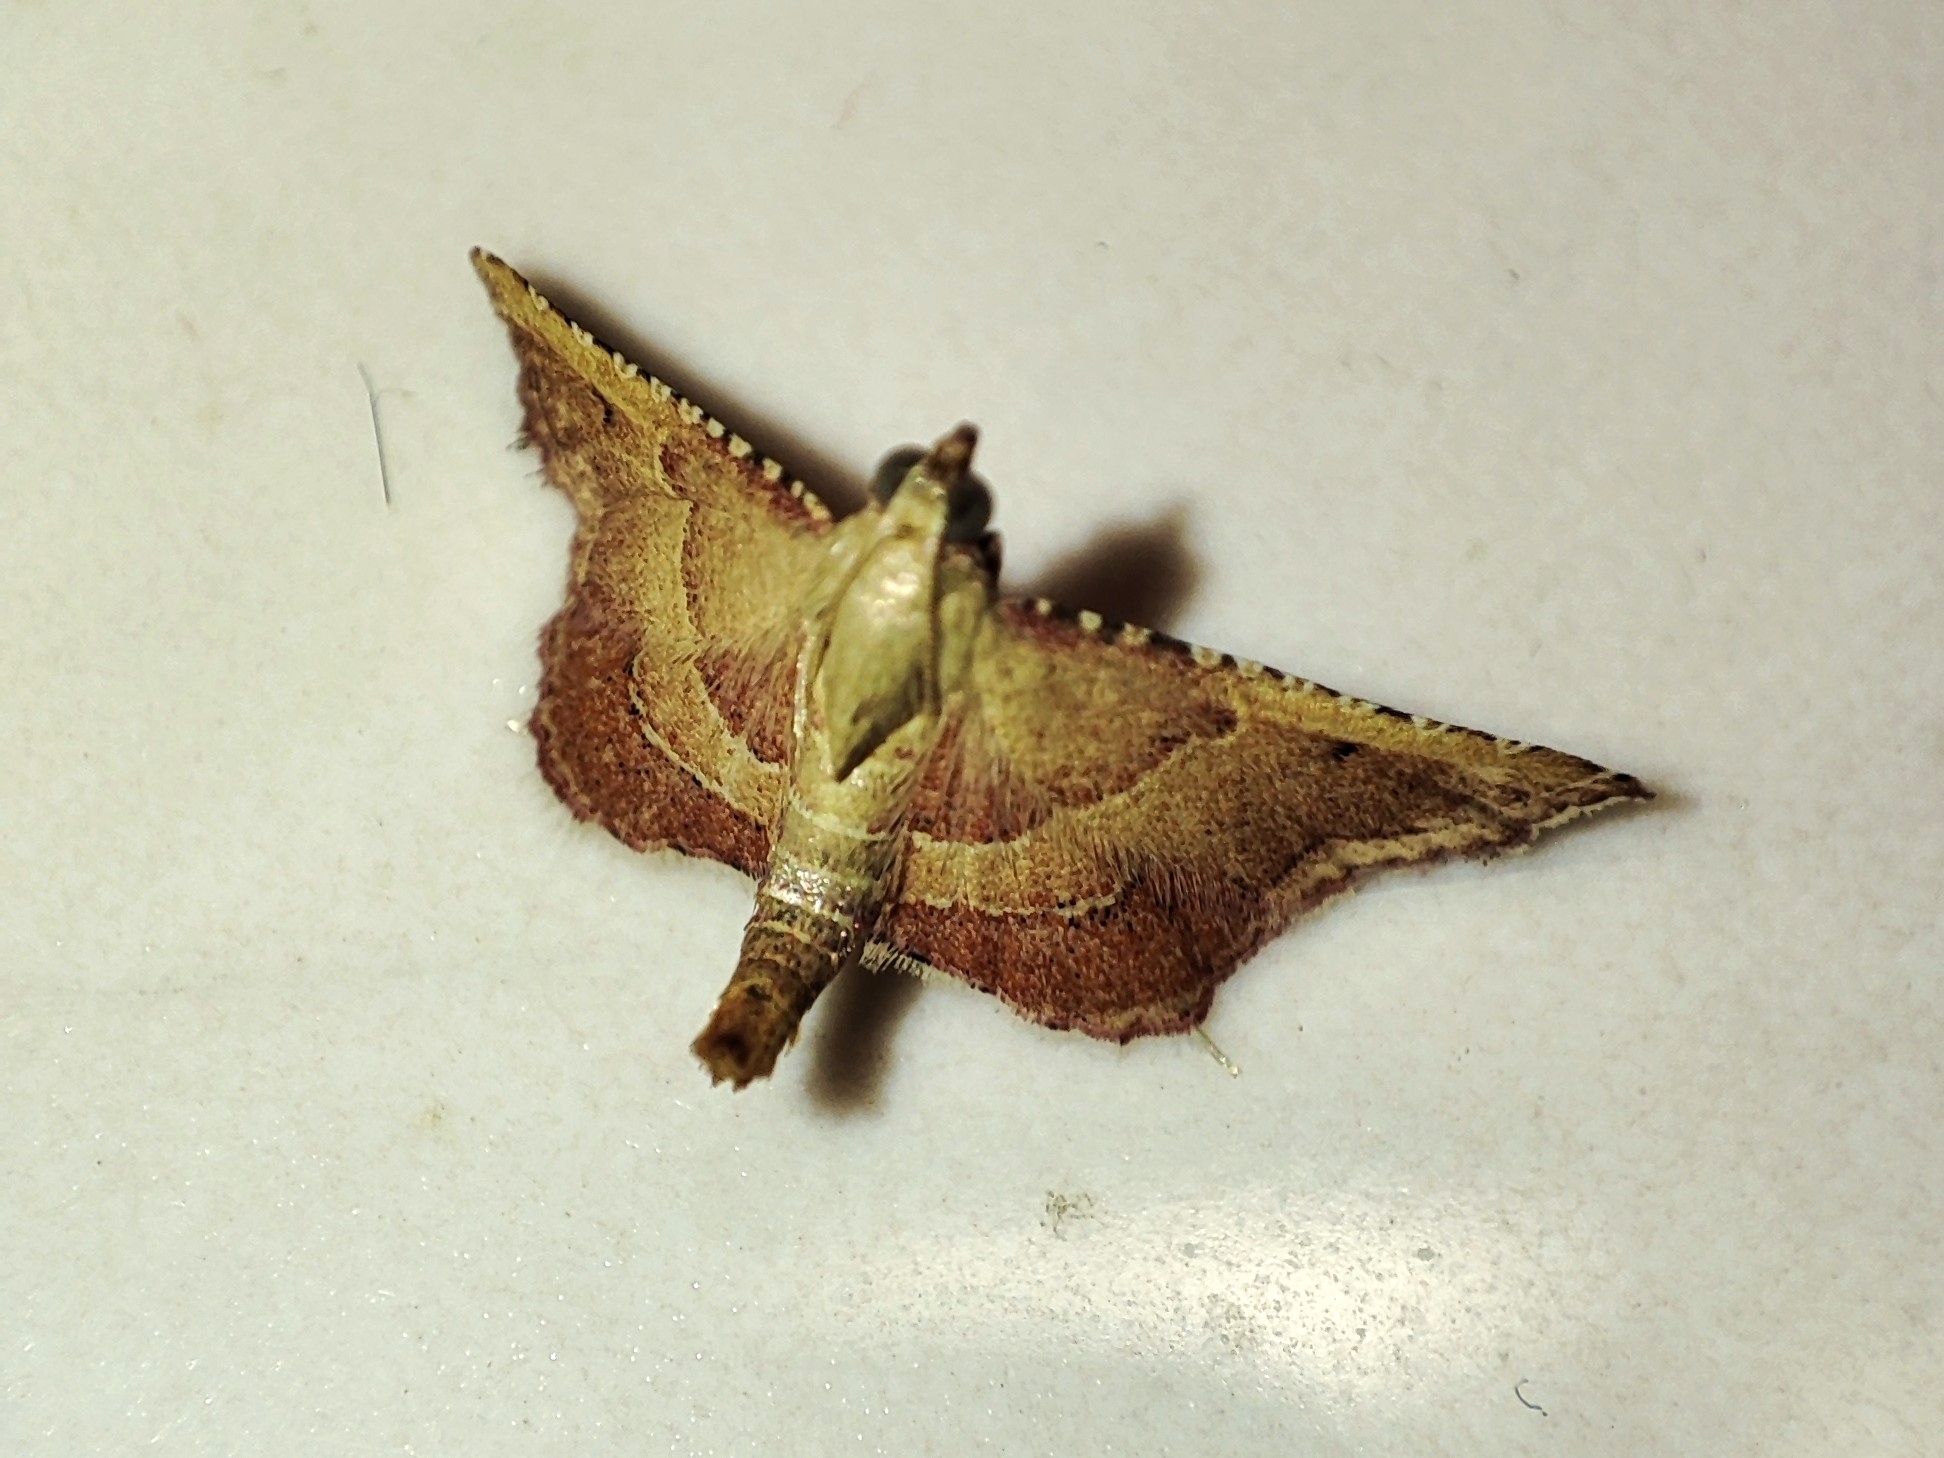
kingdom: Animalia
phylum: Arthropoda
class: Insecta
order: Lepidoptera
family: Pyralidae
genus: Endotricha
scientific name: Endotricha flammealis
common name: Rosy tabby
